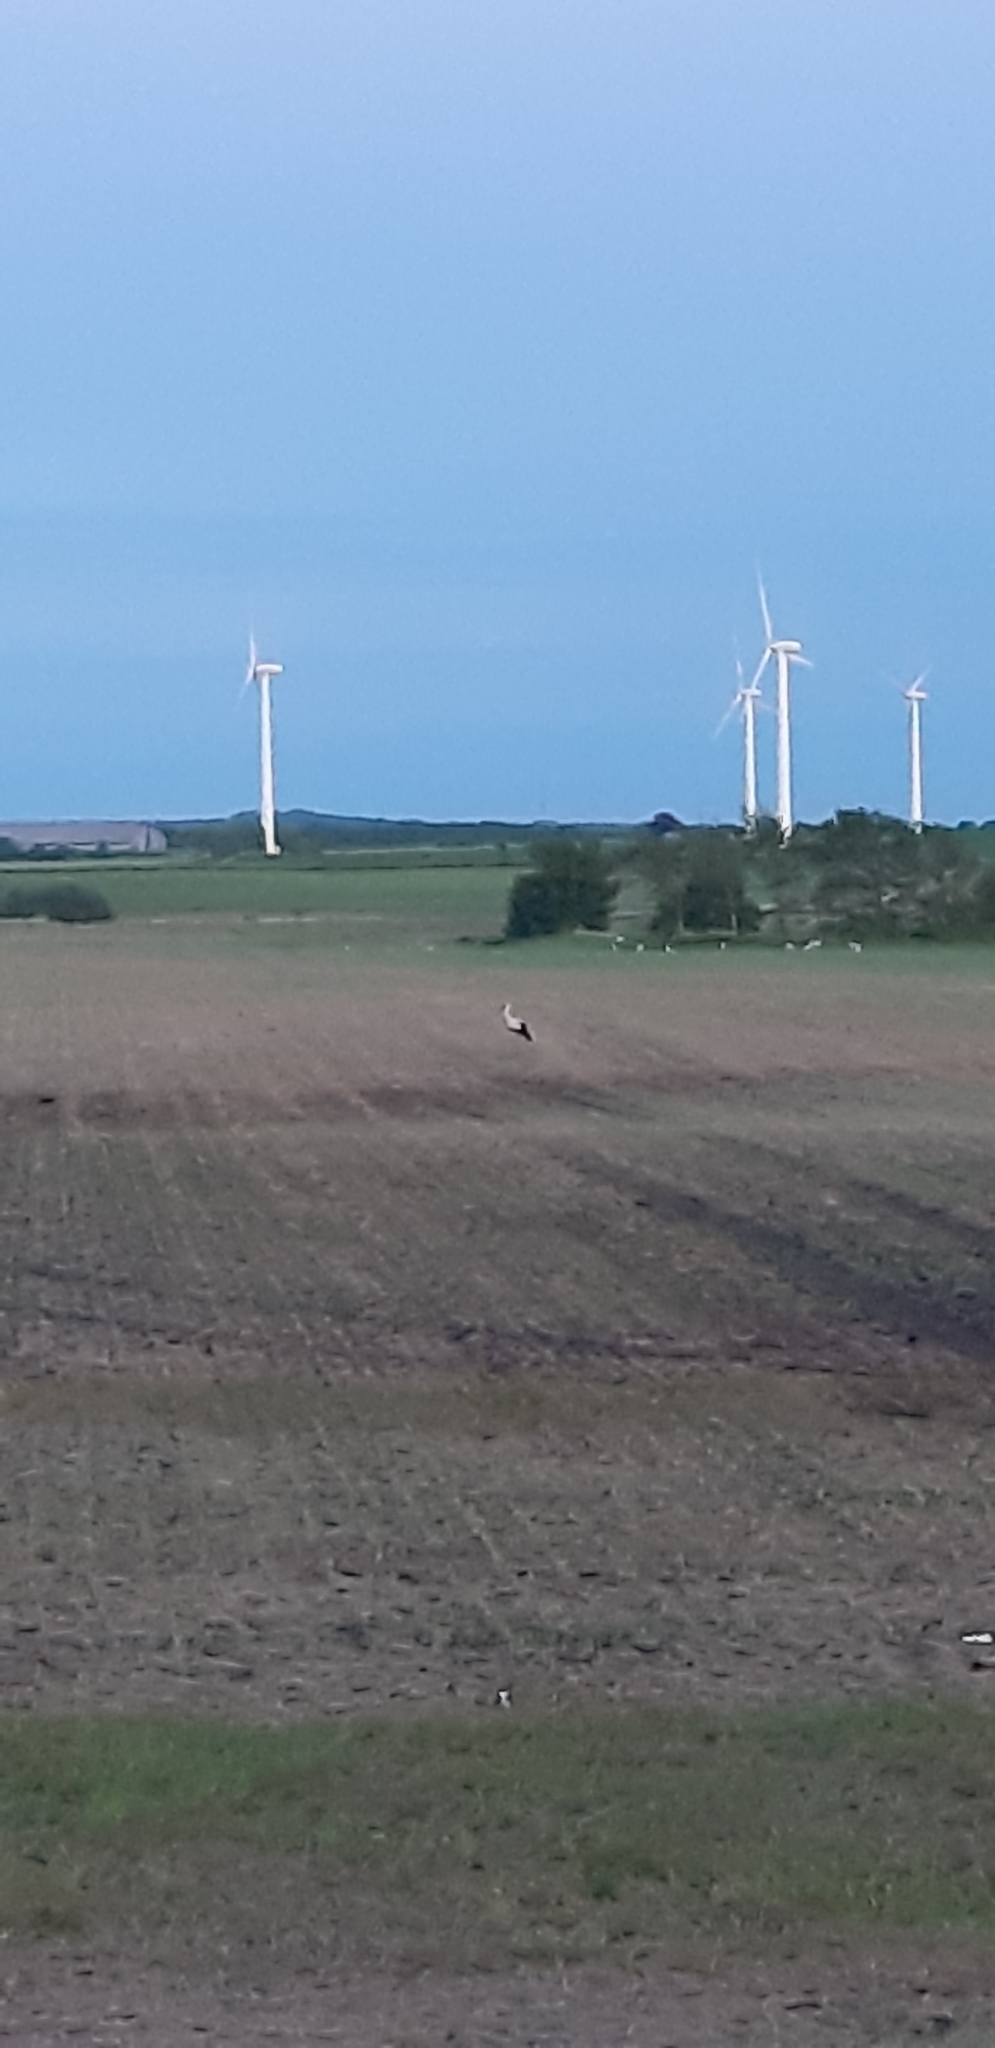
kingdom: Animalia
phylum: Chordata
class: Aves
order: Ciconiiformes
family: Ciconiidae
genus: Ciconia
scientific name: Ciconia ciconia
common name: White stork
